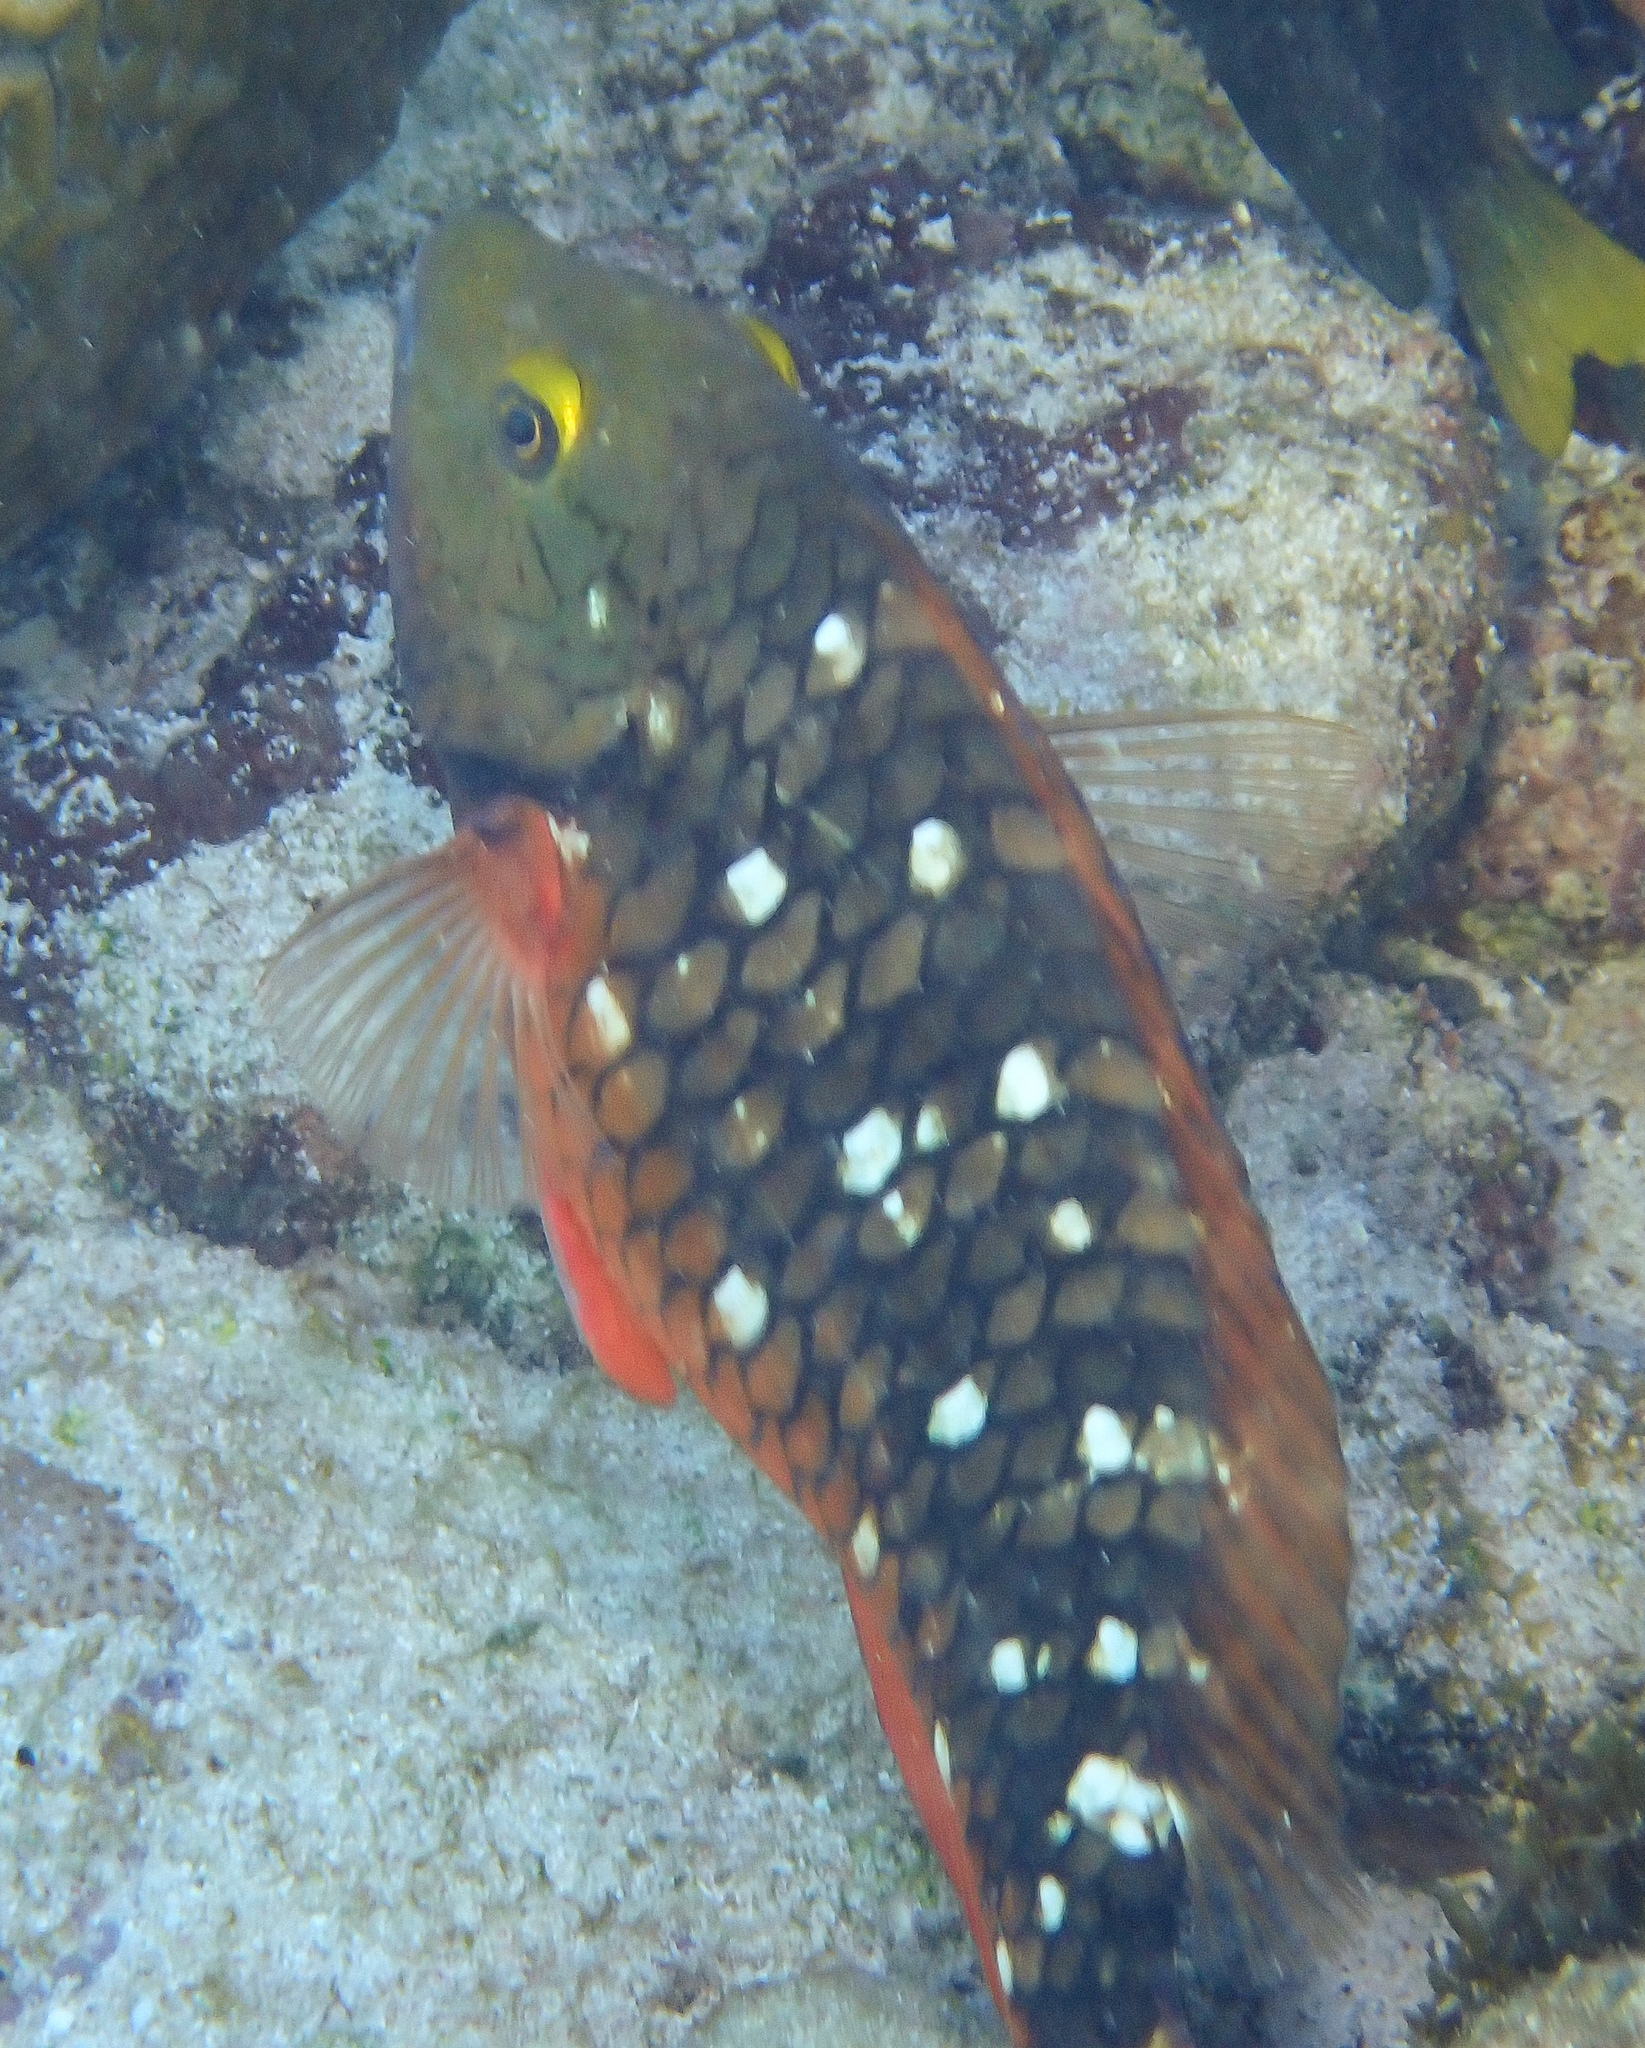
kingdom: Animalia
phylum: Chordata
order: Perciformes
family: Scaridae
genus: Sparisoma
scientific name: Sparisoma viride
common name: Stoplight parrotfish
